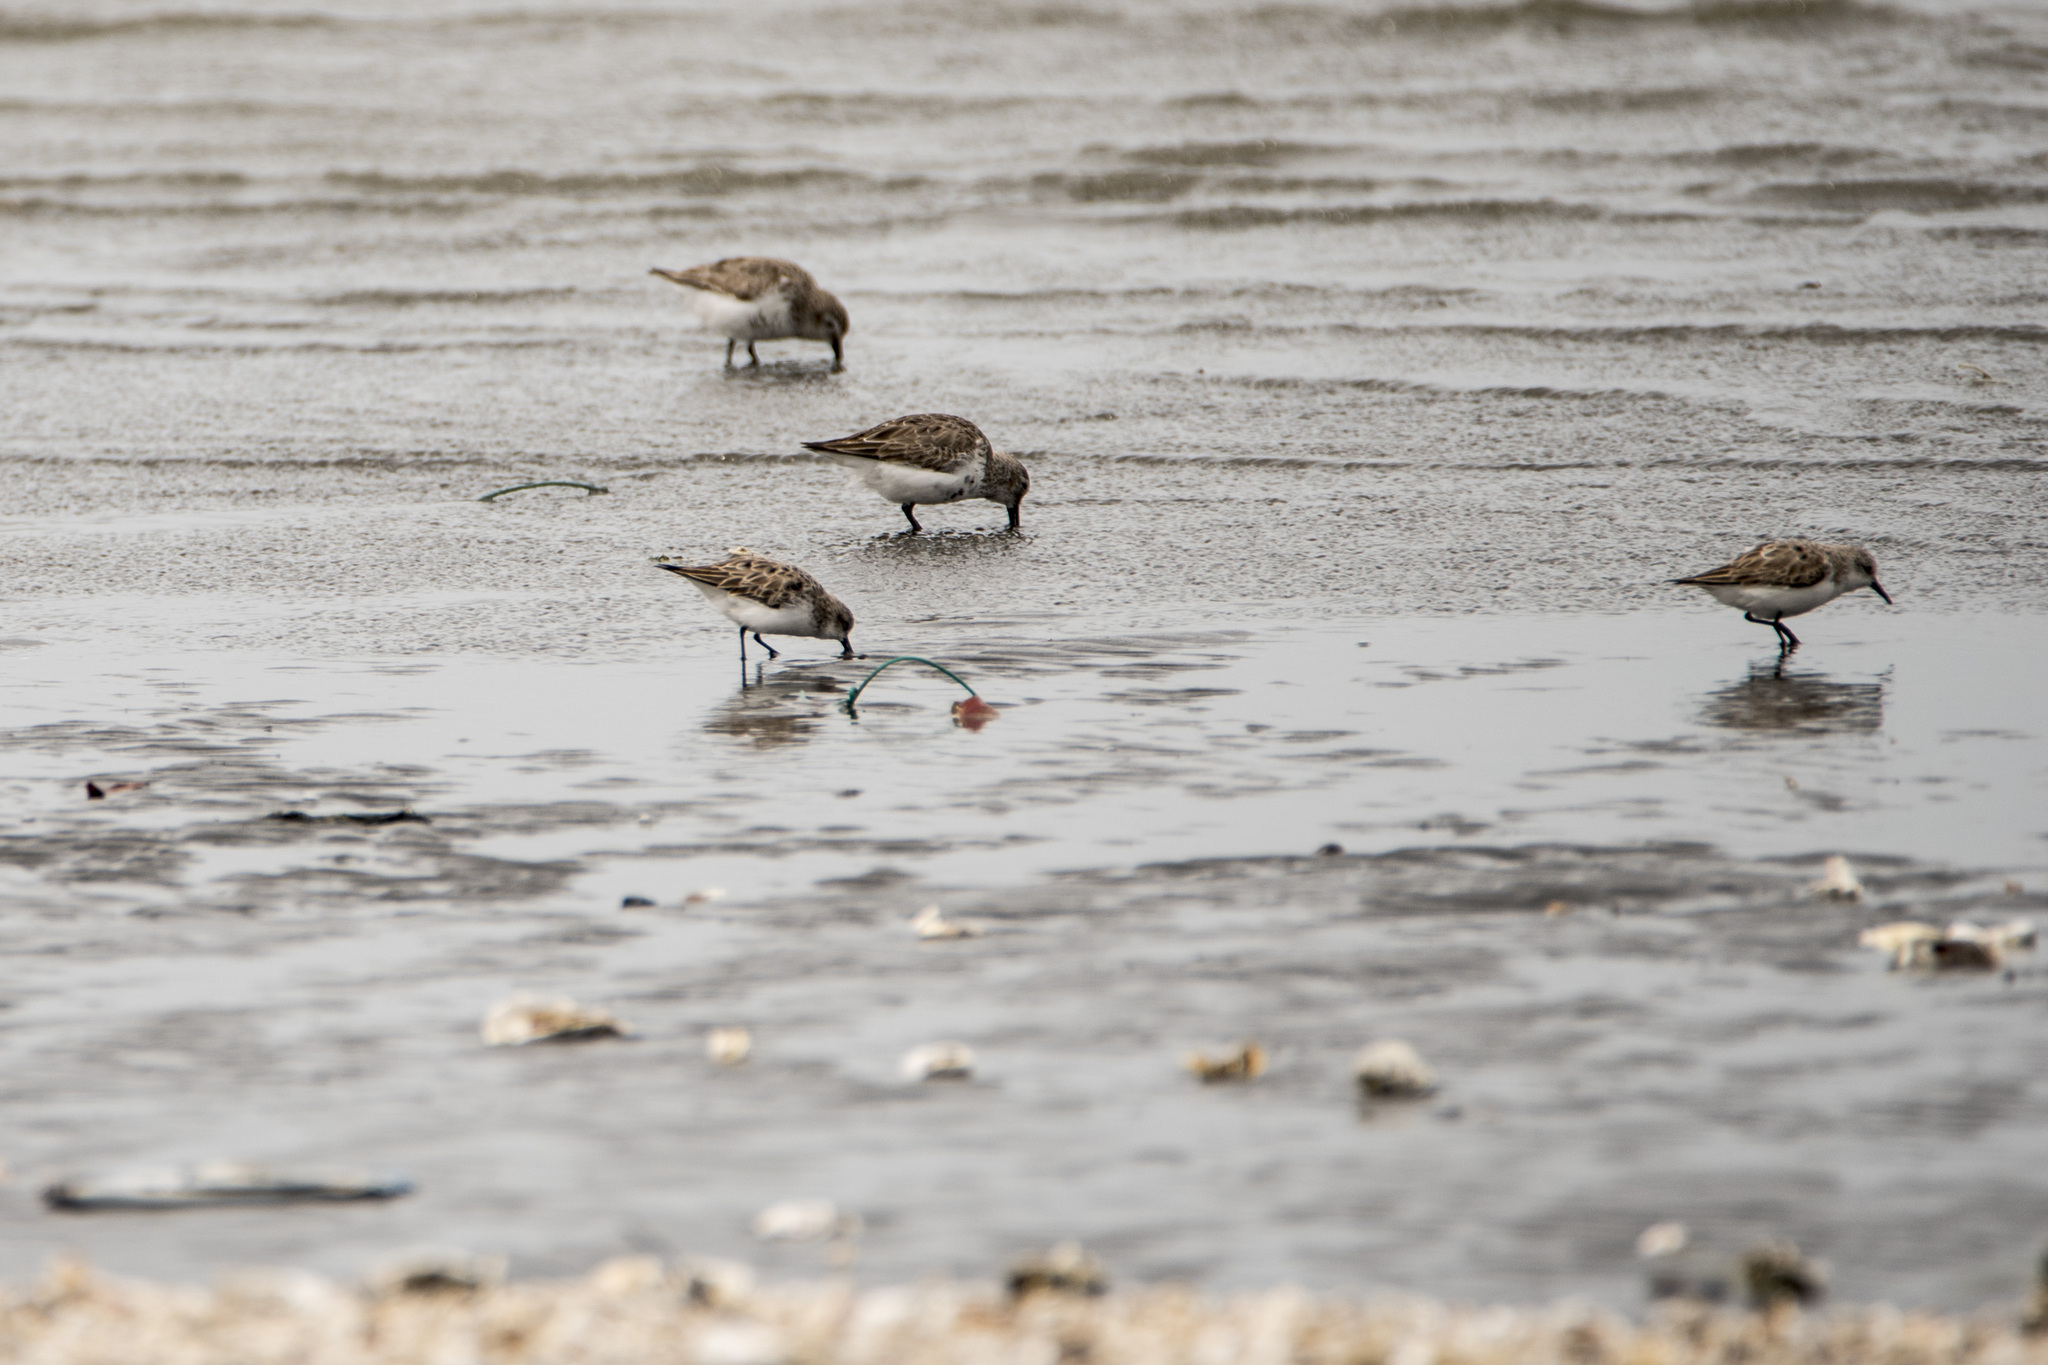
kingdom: Animalia
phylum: Chordata
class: Aves
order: Charadriiformes
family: Scolopacidae
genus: Calidris
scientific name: Calidris ruficollis
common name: Red-necked stint
